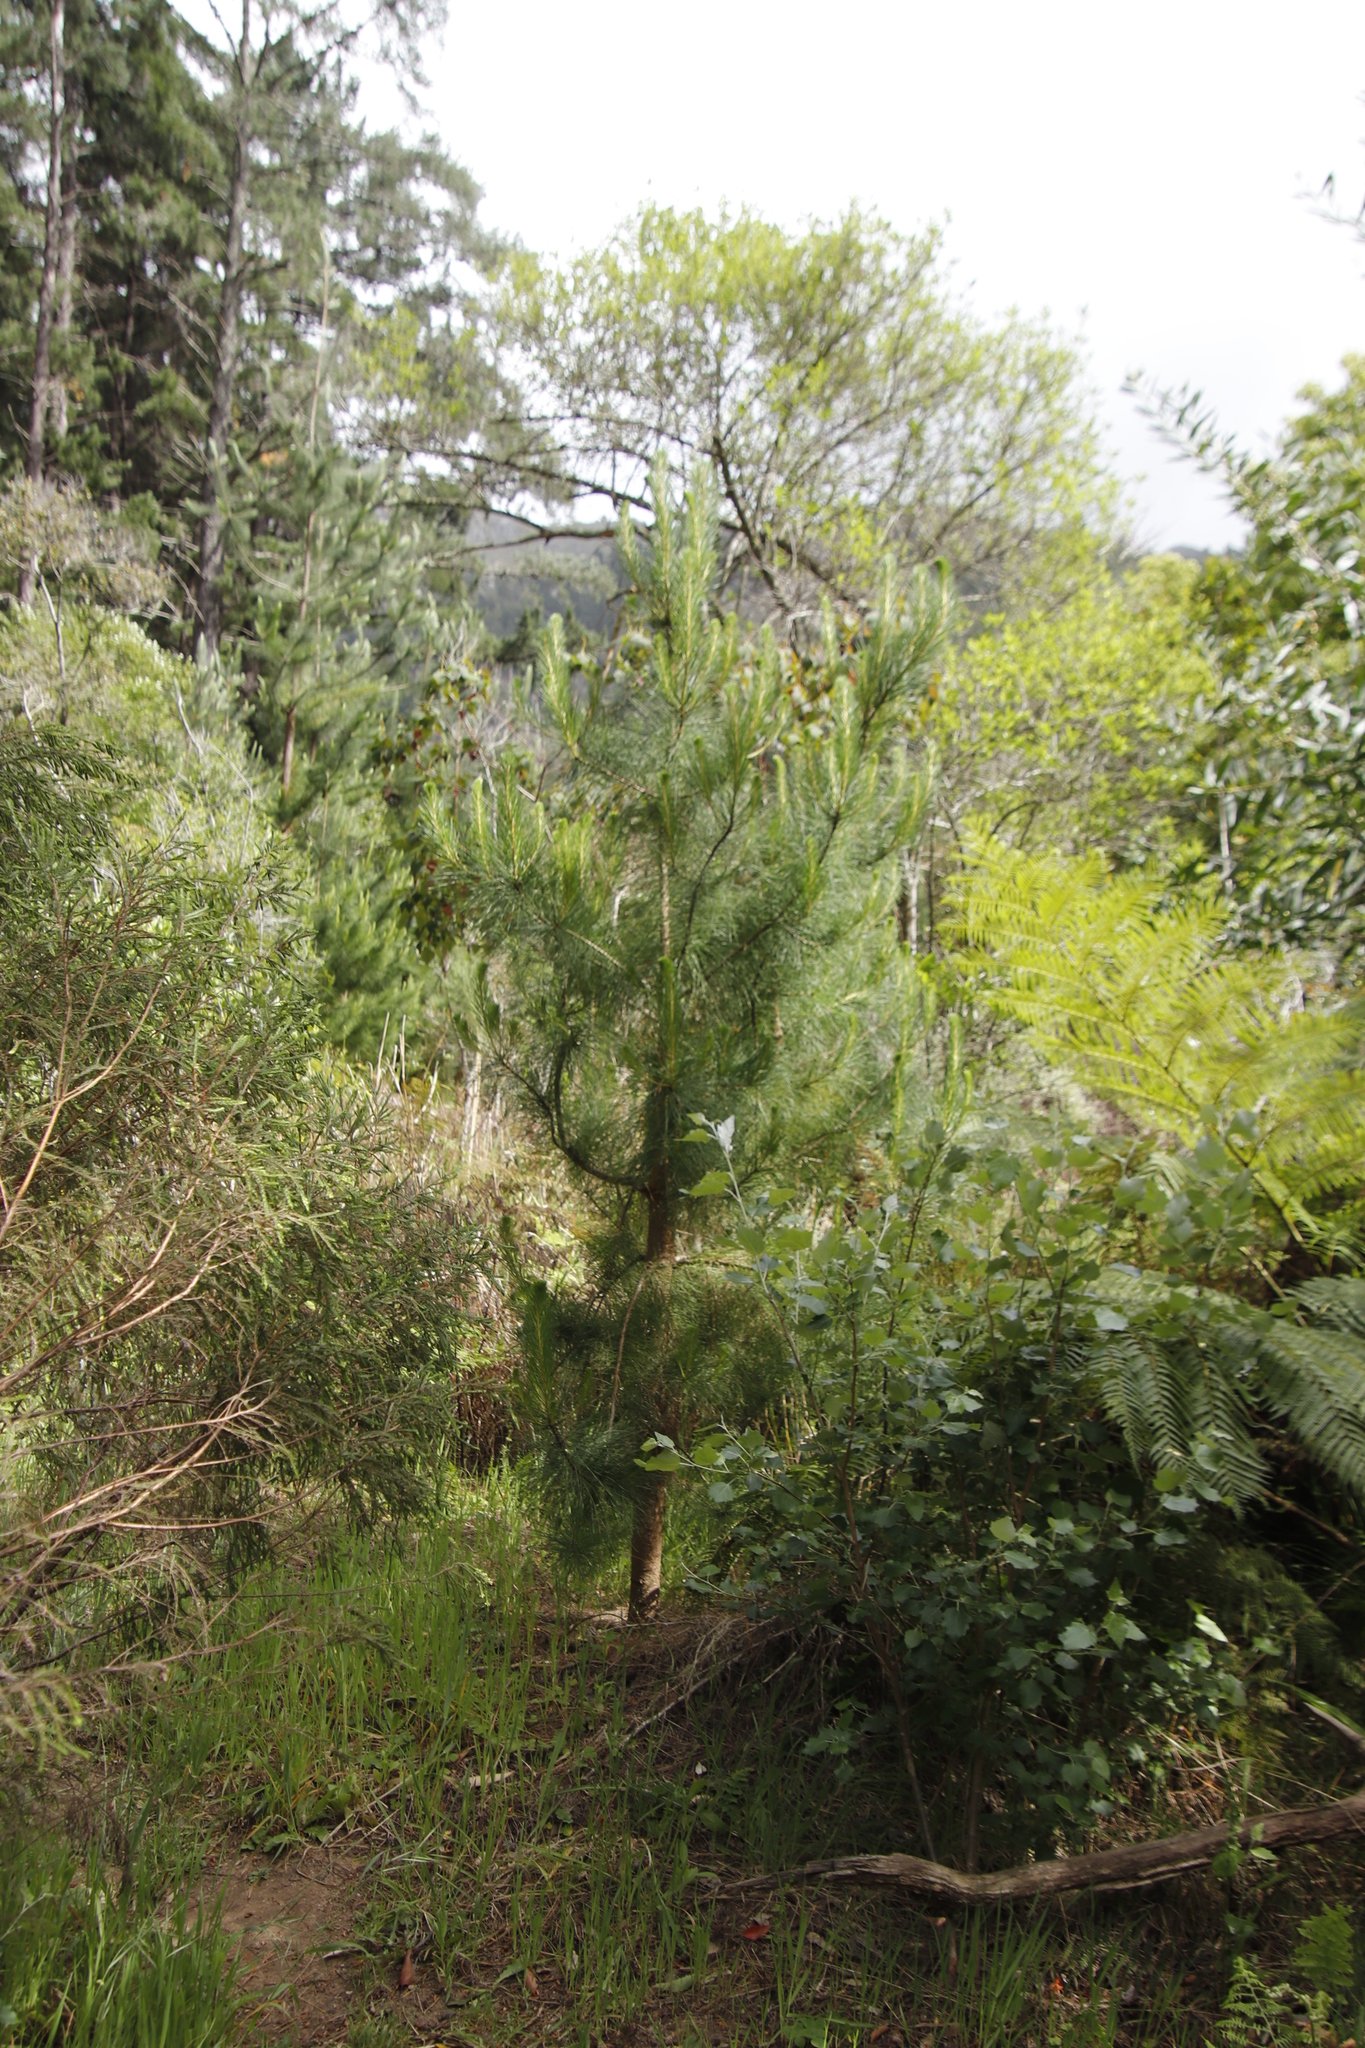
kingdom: Plantae
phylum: Tracheophyta
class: Pinopsida
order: Pinales
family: Pinaceae
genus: Pinus
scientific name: Pinus radiata
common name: Monterey pine
